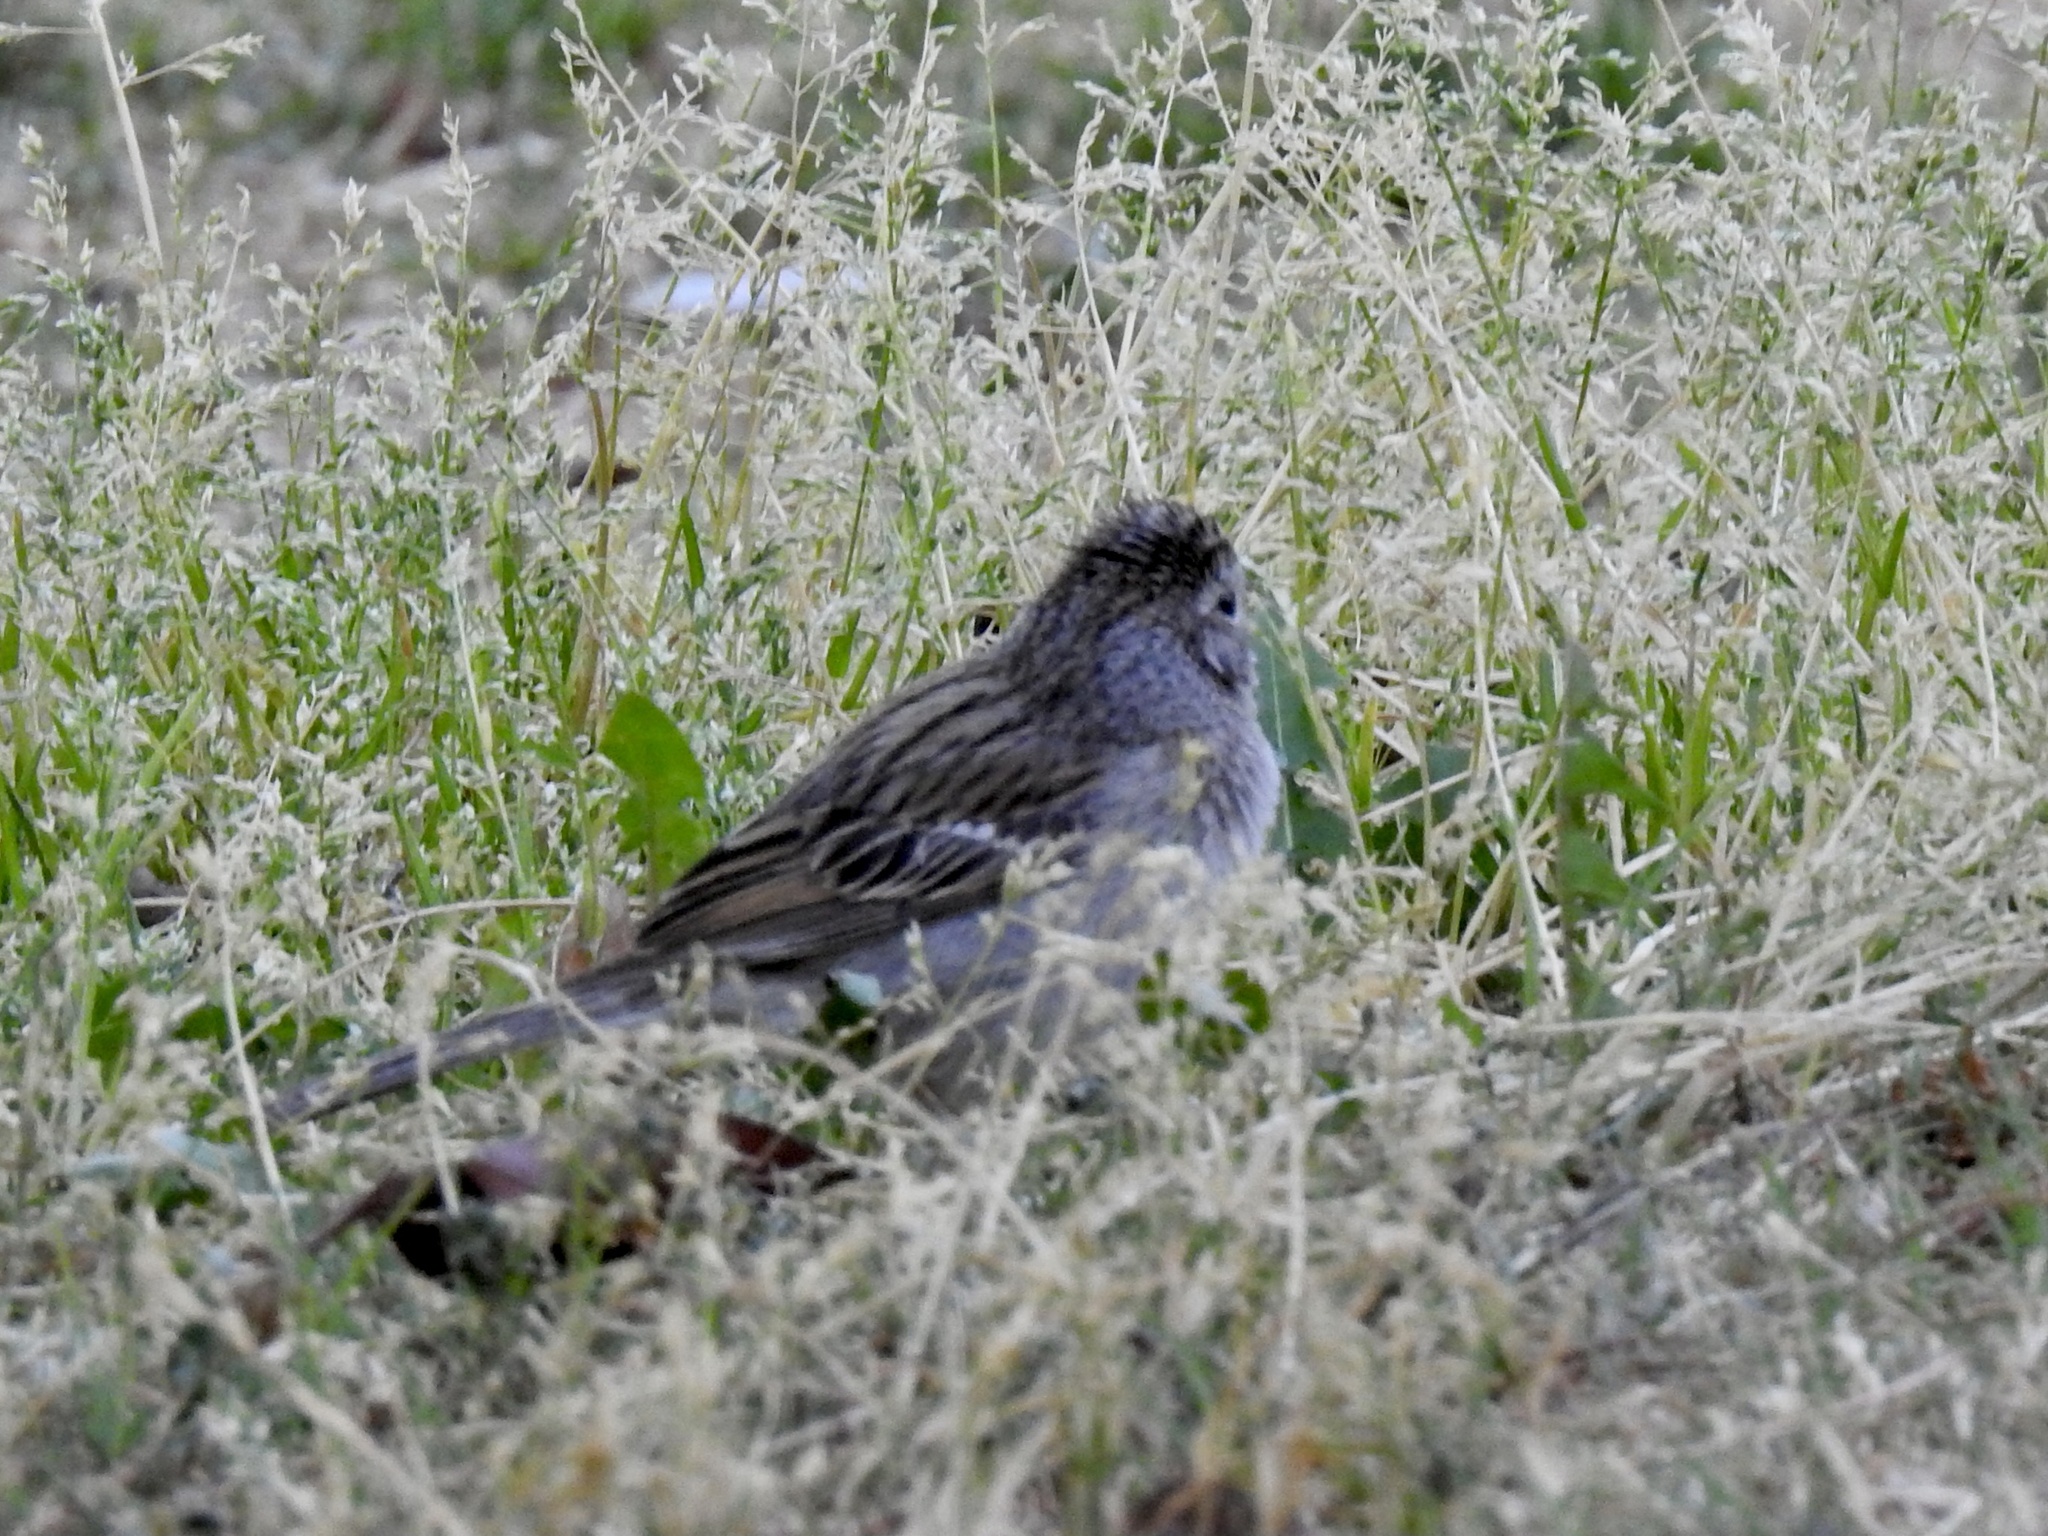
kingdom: Animalia
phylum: Chordata
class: Aves
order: Passeriformes
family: Passerellidae
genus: Spizella
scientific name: Spizella breweri
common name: Brewer's sparrow
